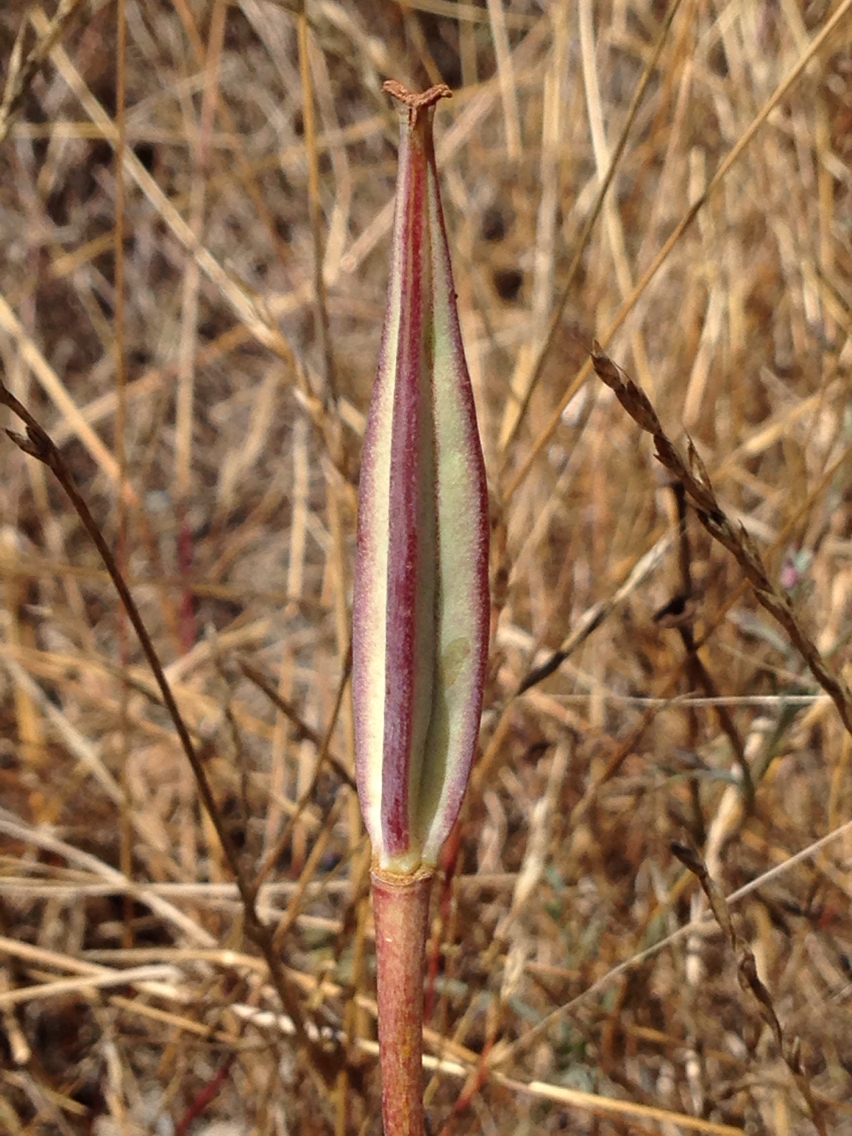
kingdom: Plantae
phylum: Tracheophyta
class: Liliopsida
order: Liliales
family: Liliaceae
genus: Calochortus
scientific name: Calochortus luteus
